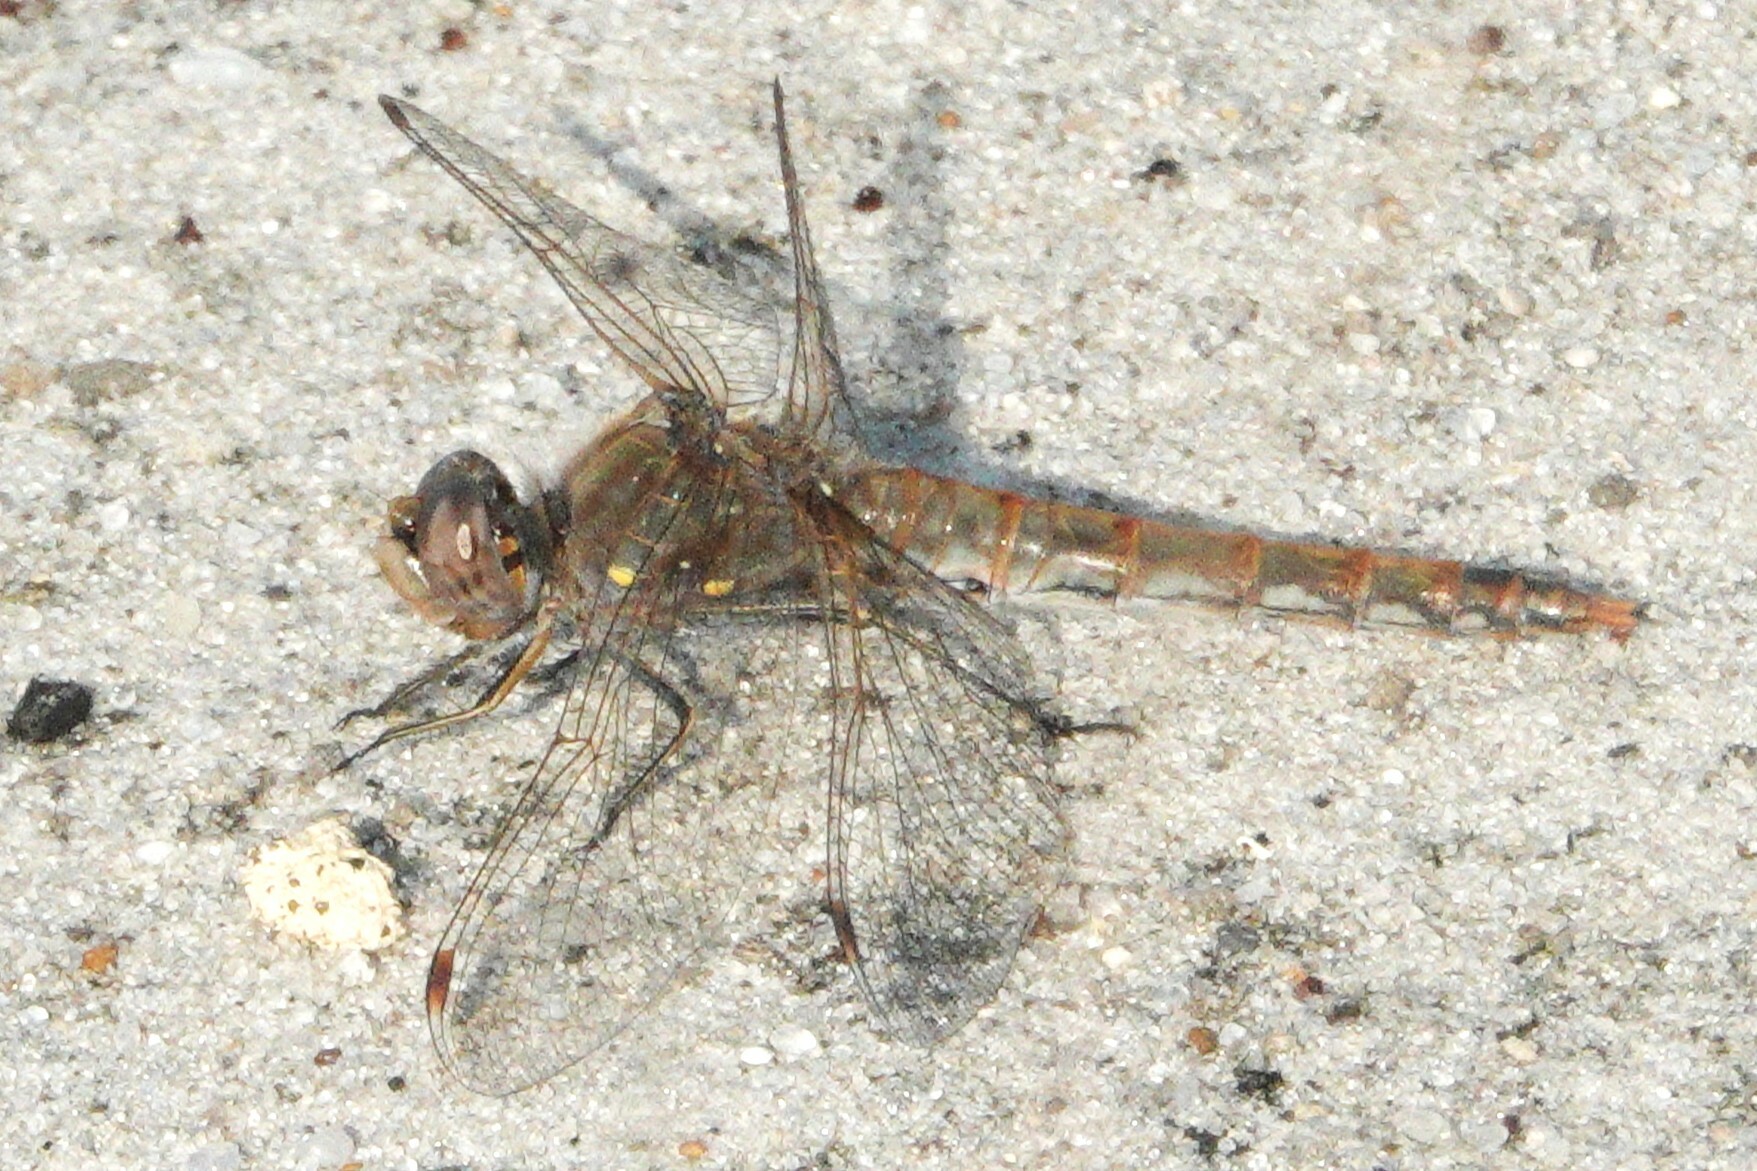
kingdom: Animalia
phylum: Arthropoda
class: Insecta
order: Odonata
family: Libellulidae
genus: Sympetrum
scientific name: Sympetrum corruptum
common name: Variegated meadowhawk
